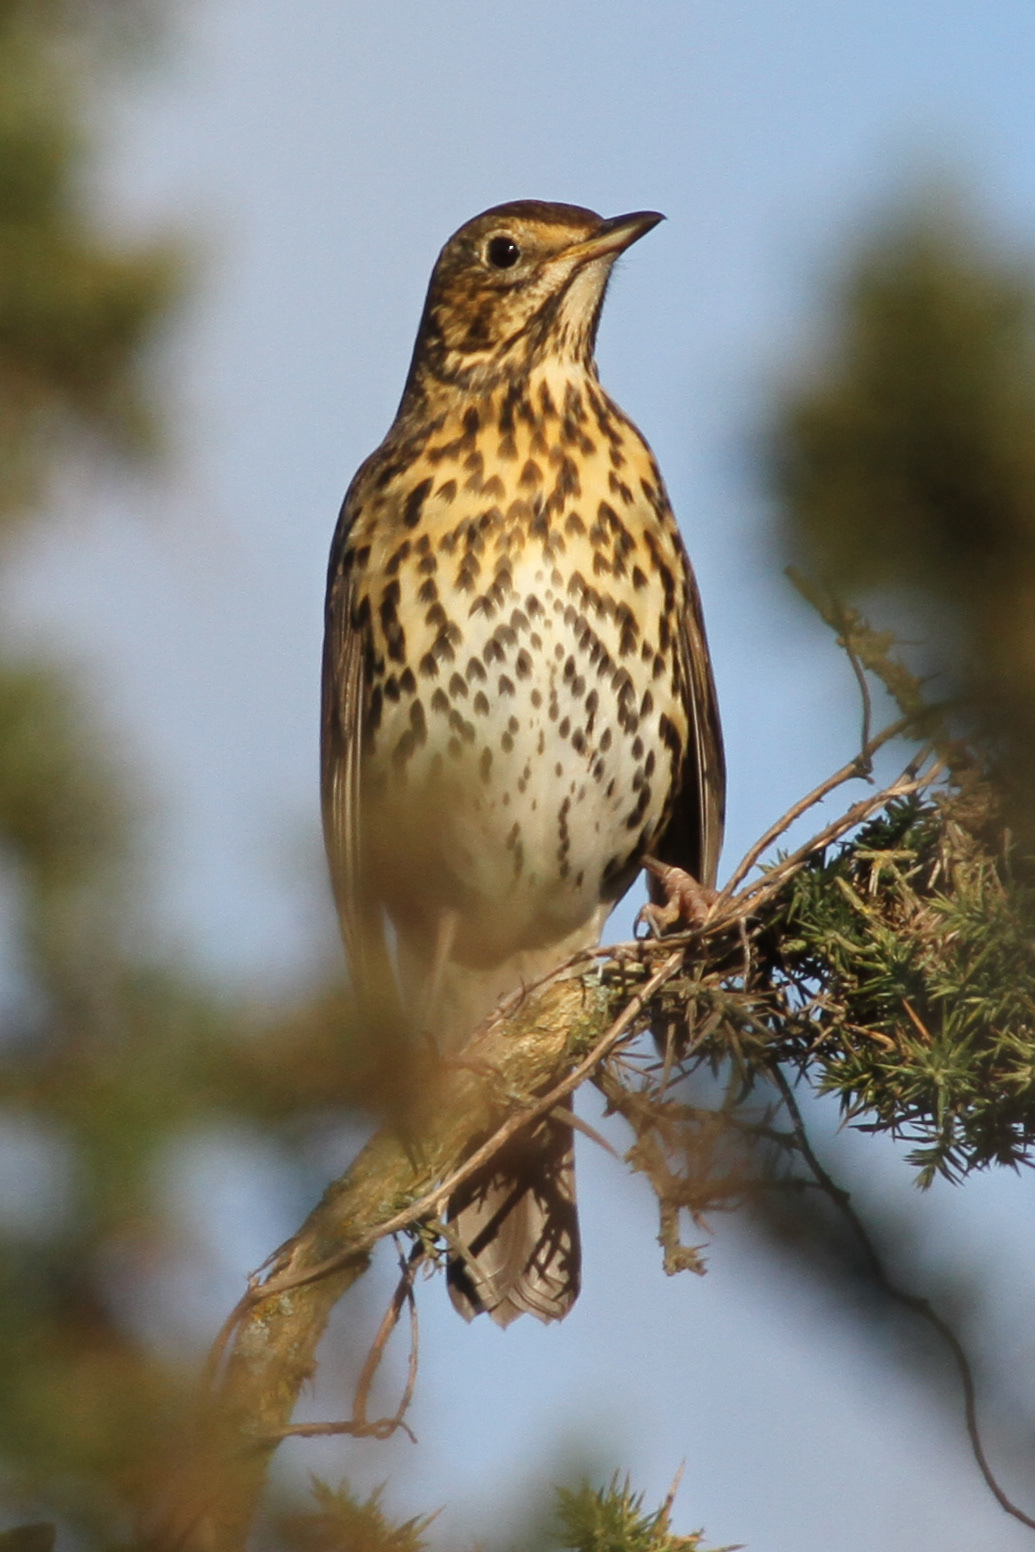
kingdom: Animalia
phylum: Chordata
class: Aves
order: Passeriformes
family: Turdidae
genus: Turdus
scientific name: Turdus philomelos
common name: Song thrush
